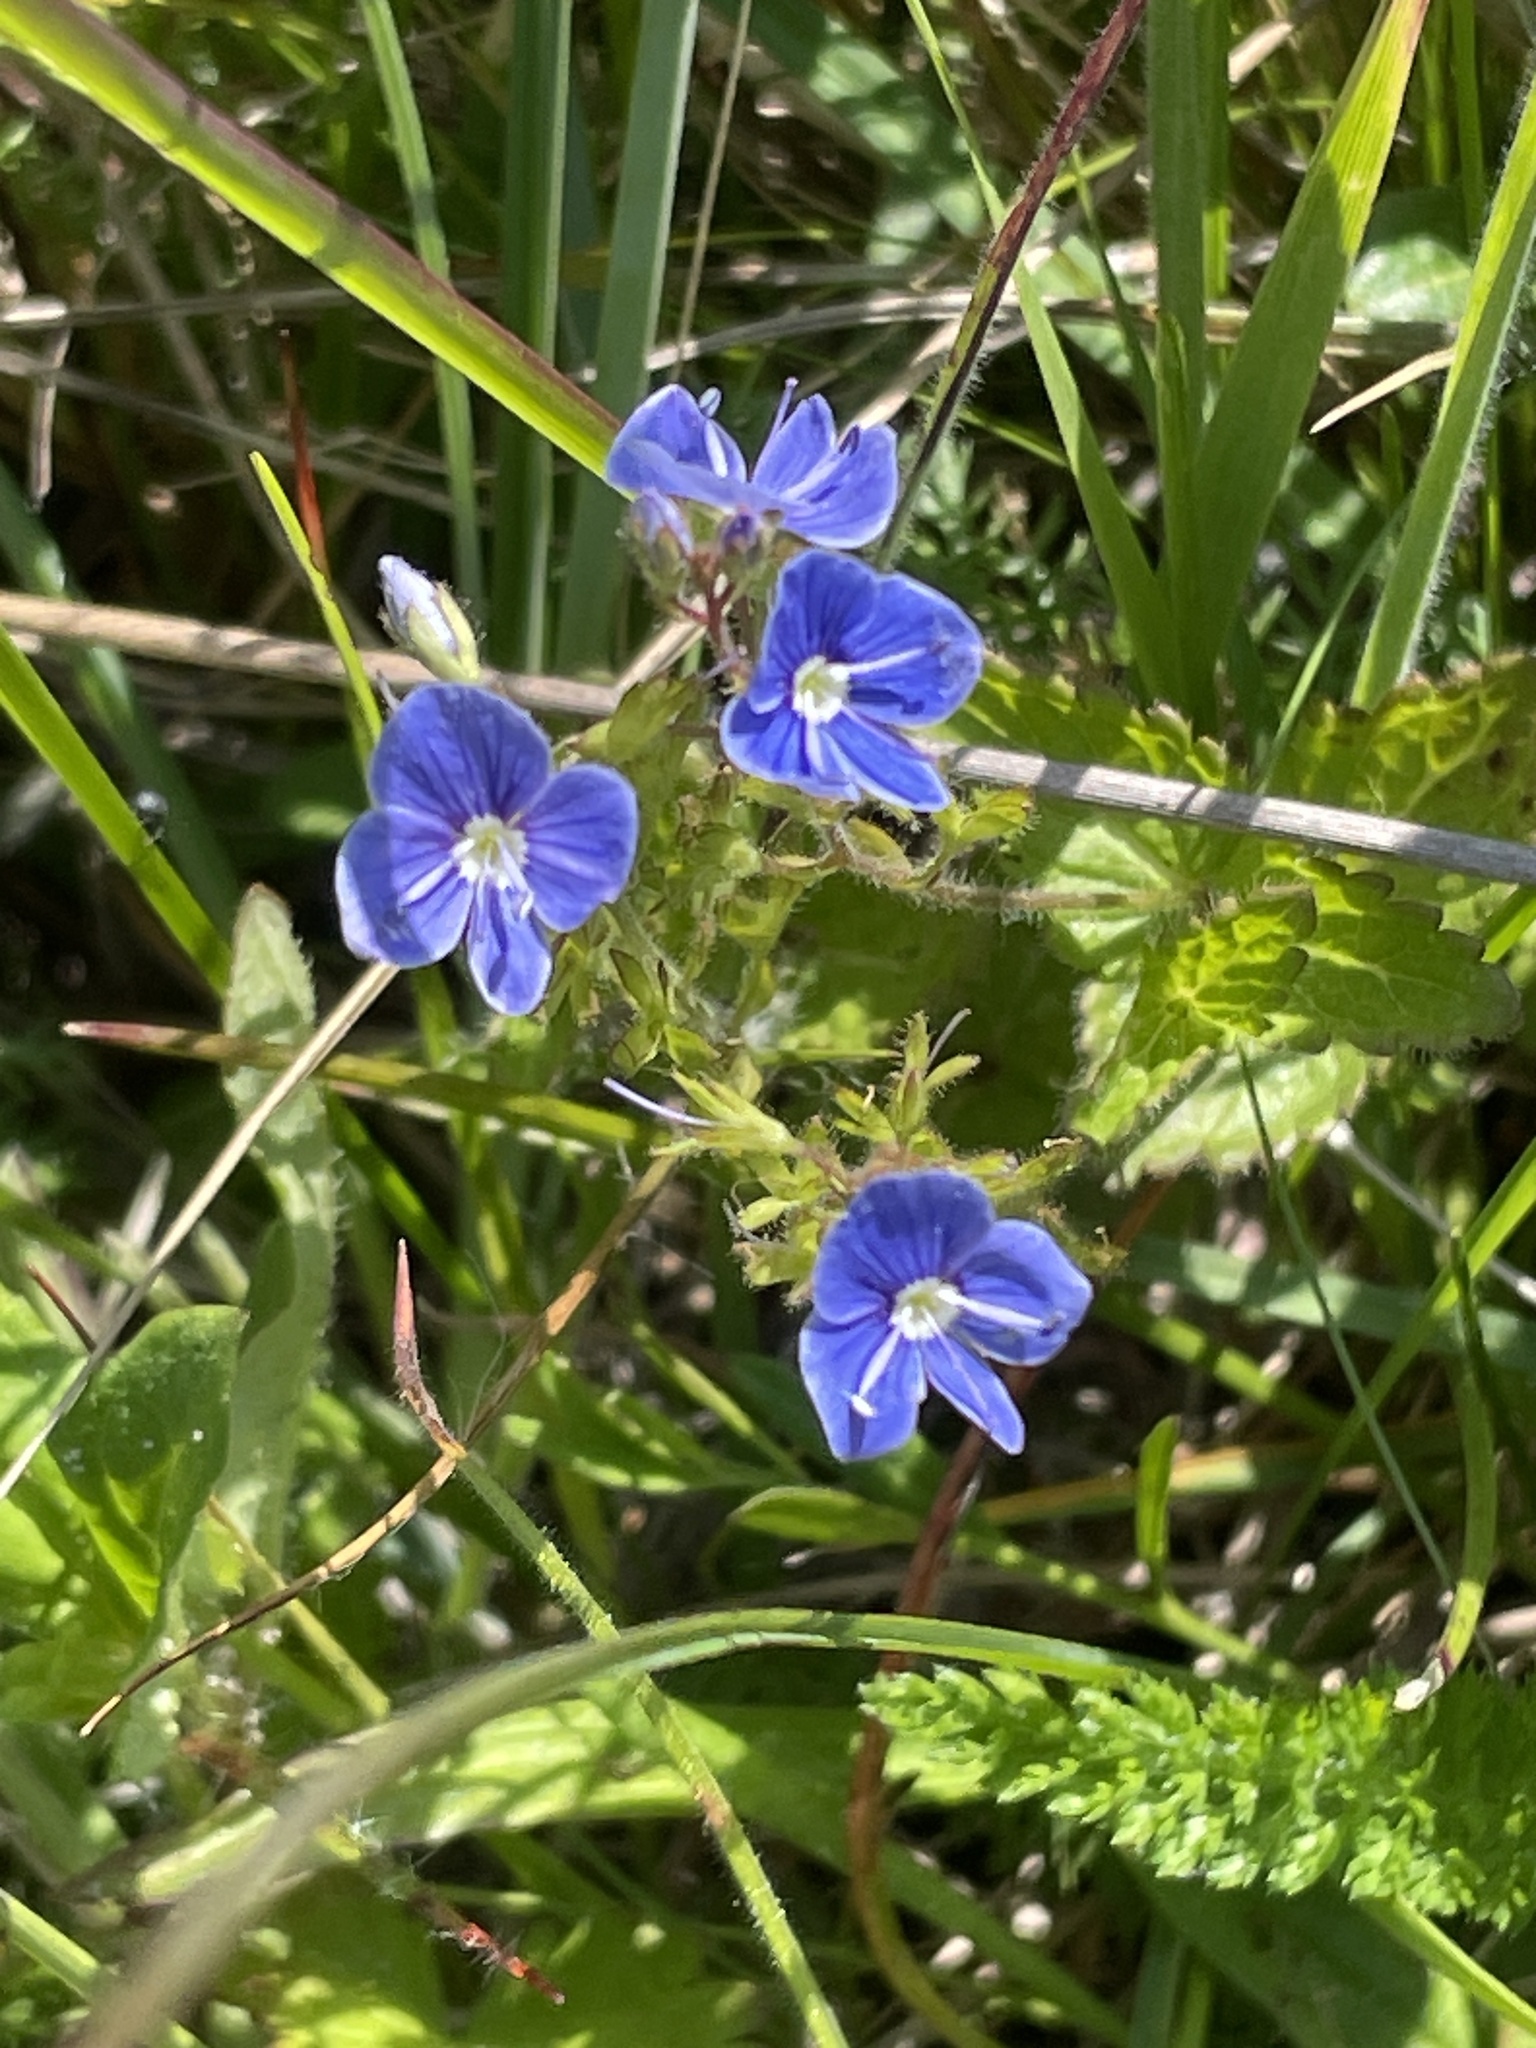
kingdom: Plantae
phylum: Tracheophyta
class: Magnoliopsida
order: Lamiales
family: Plantaginaceae
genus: Veronica
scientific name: Veronica chamaedrys
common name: Germander speedwell
